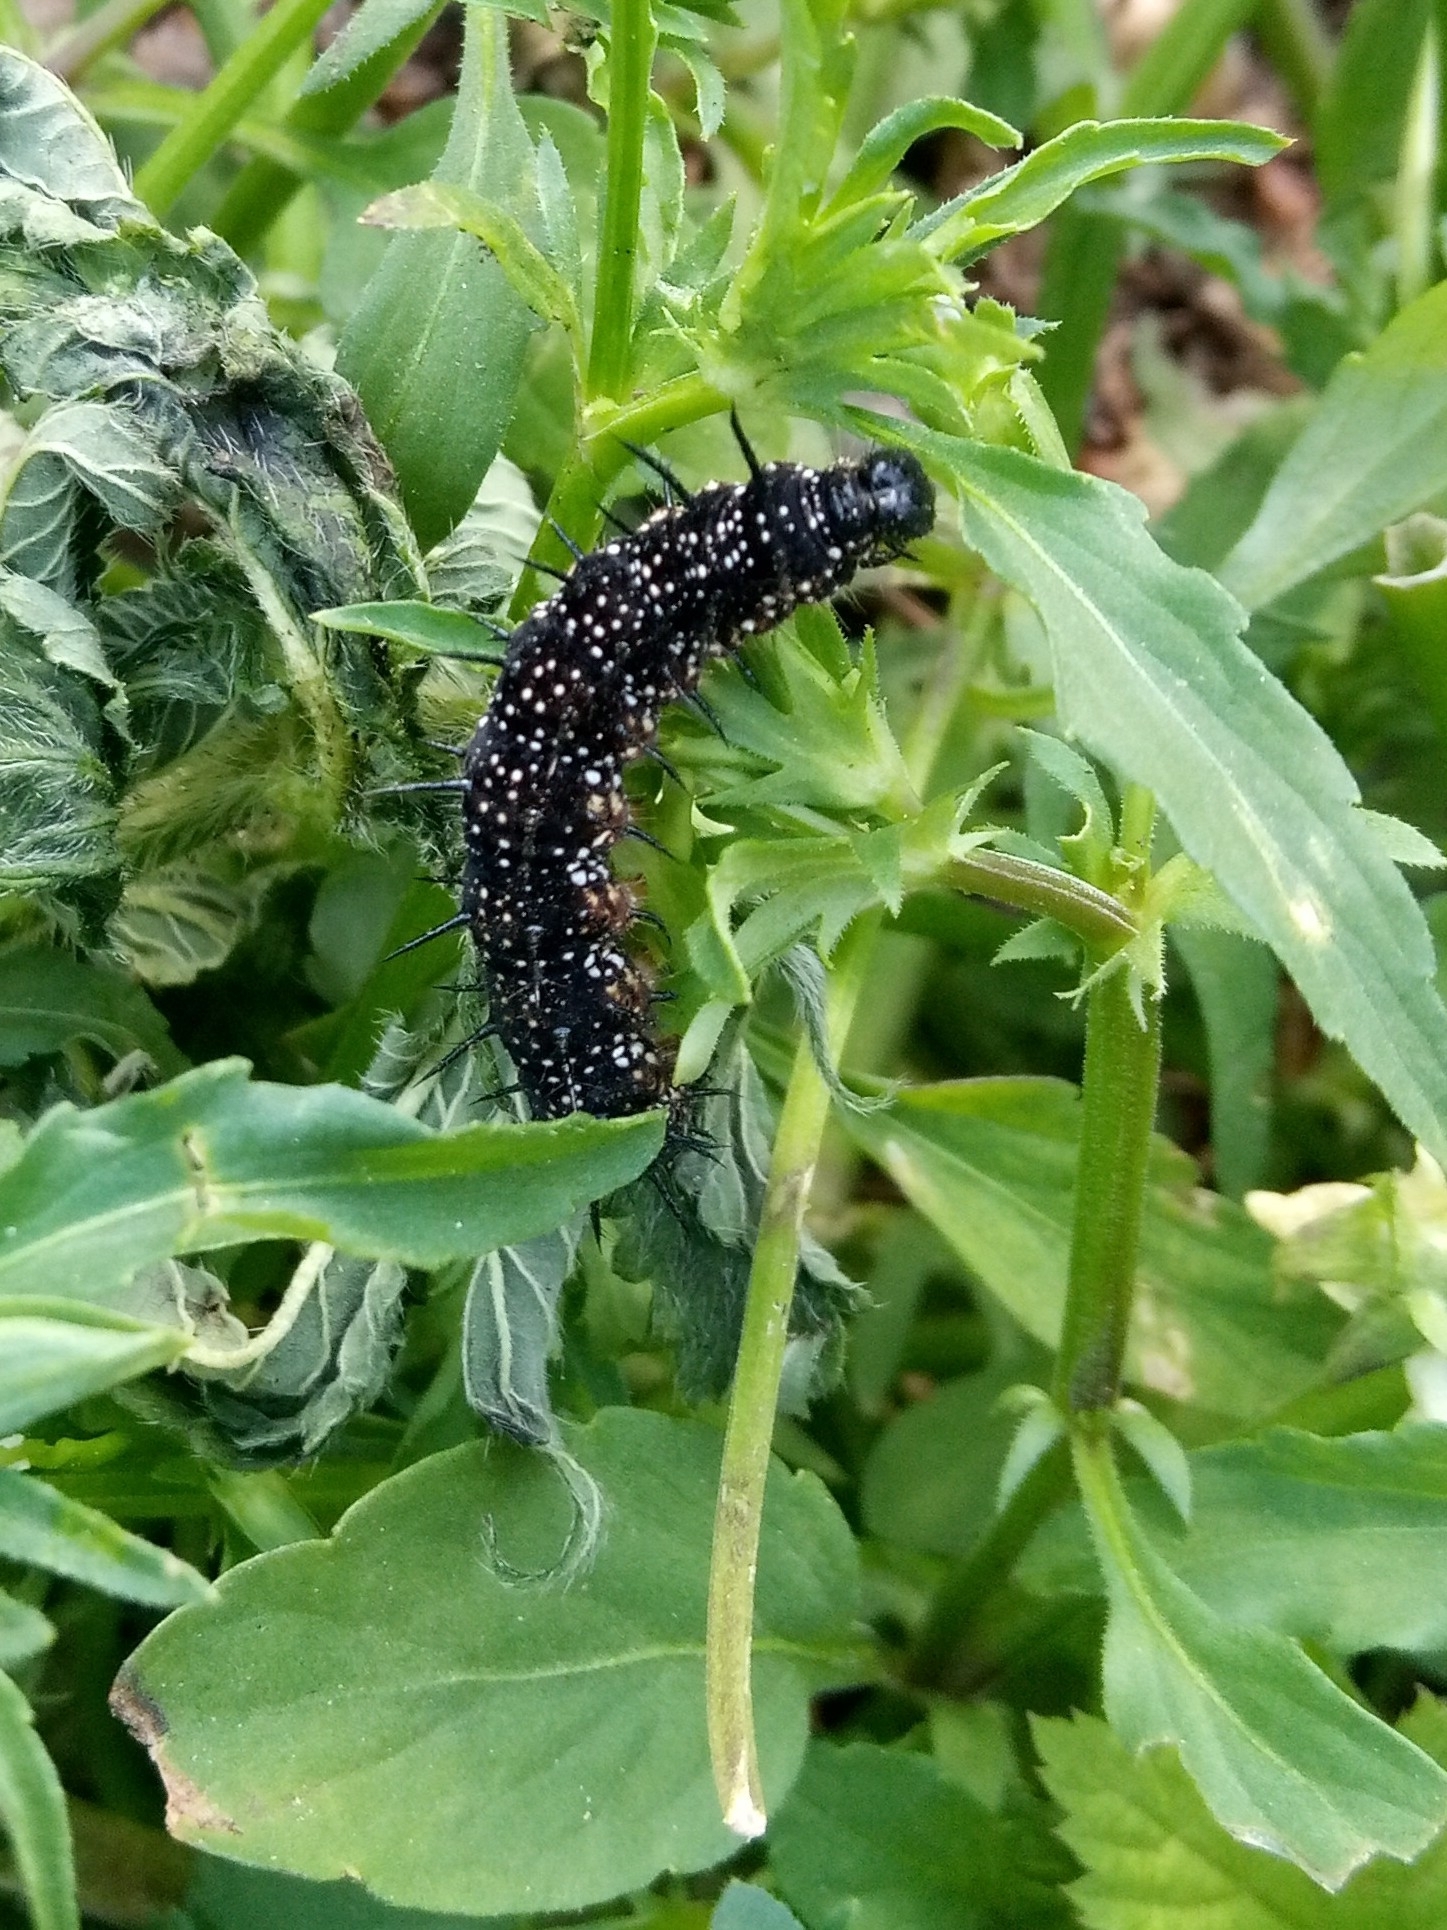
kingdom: Animalia
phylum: Arthropoda
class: Insecta
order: Lepidoptera
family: Nymphalidae
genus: Aglais
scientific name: Aglais io
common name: Peacock
